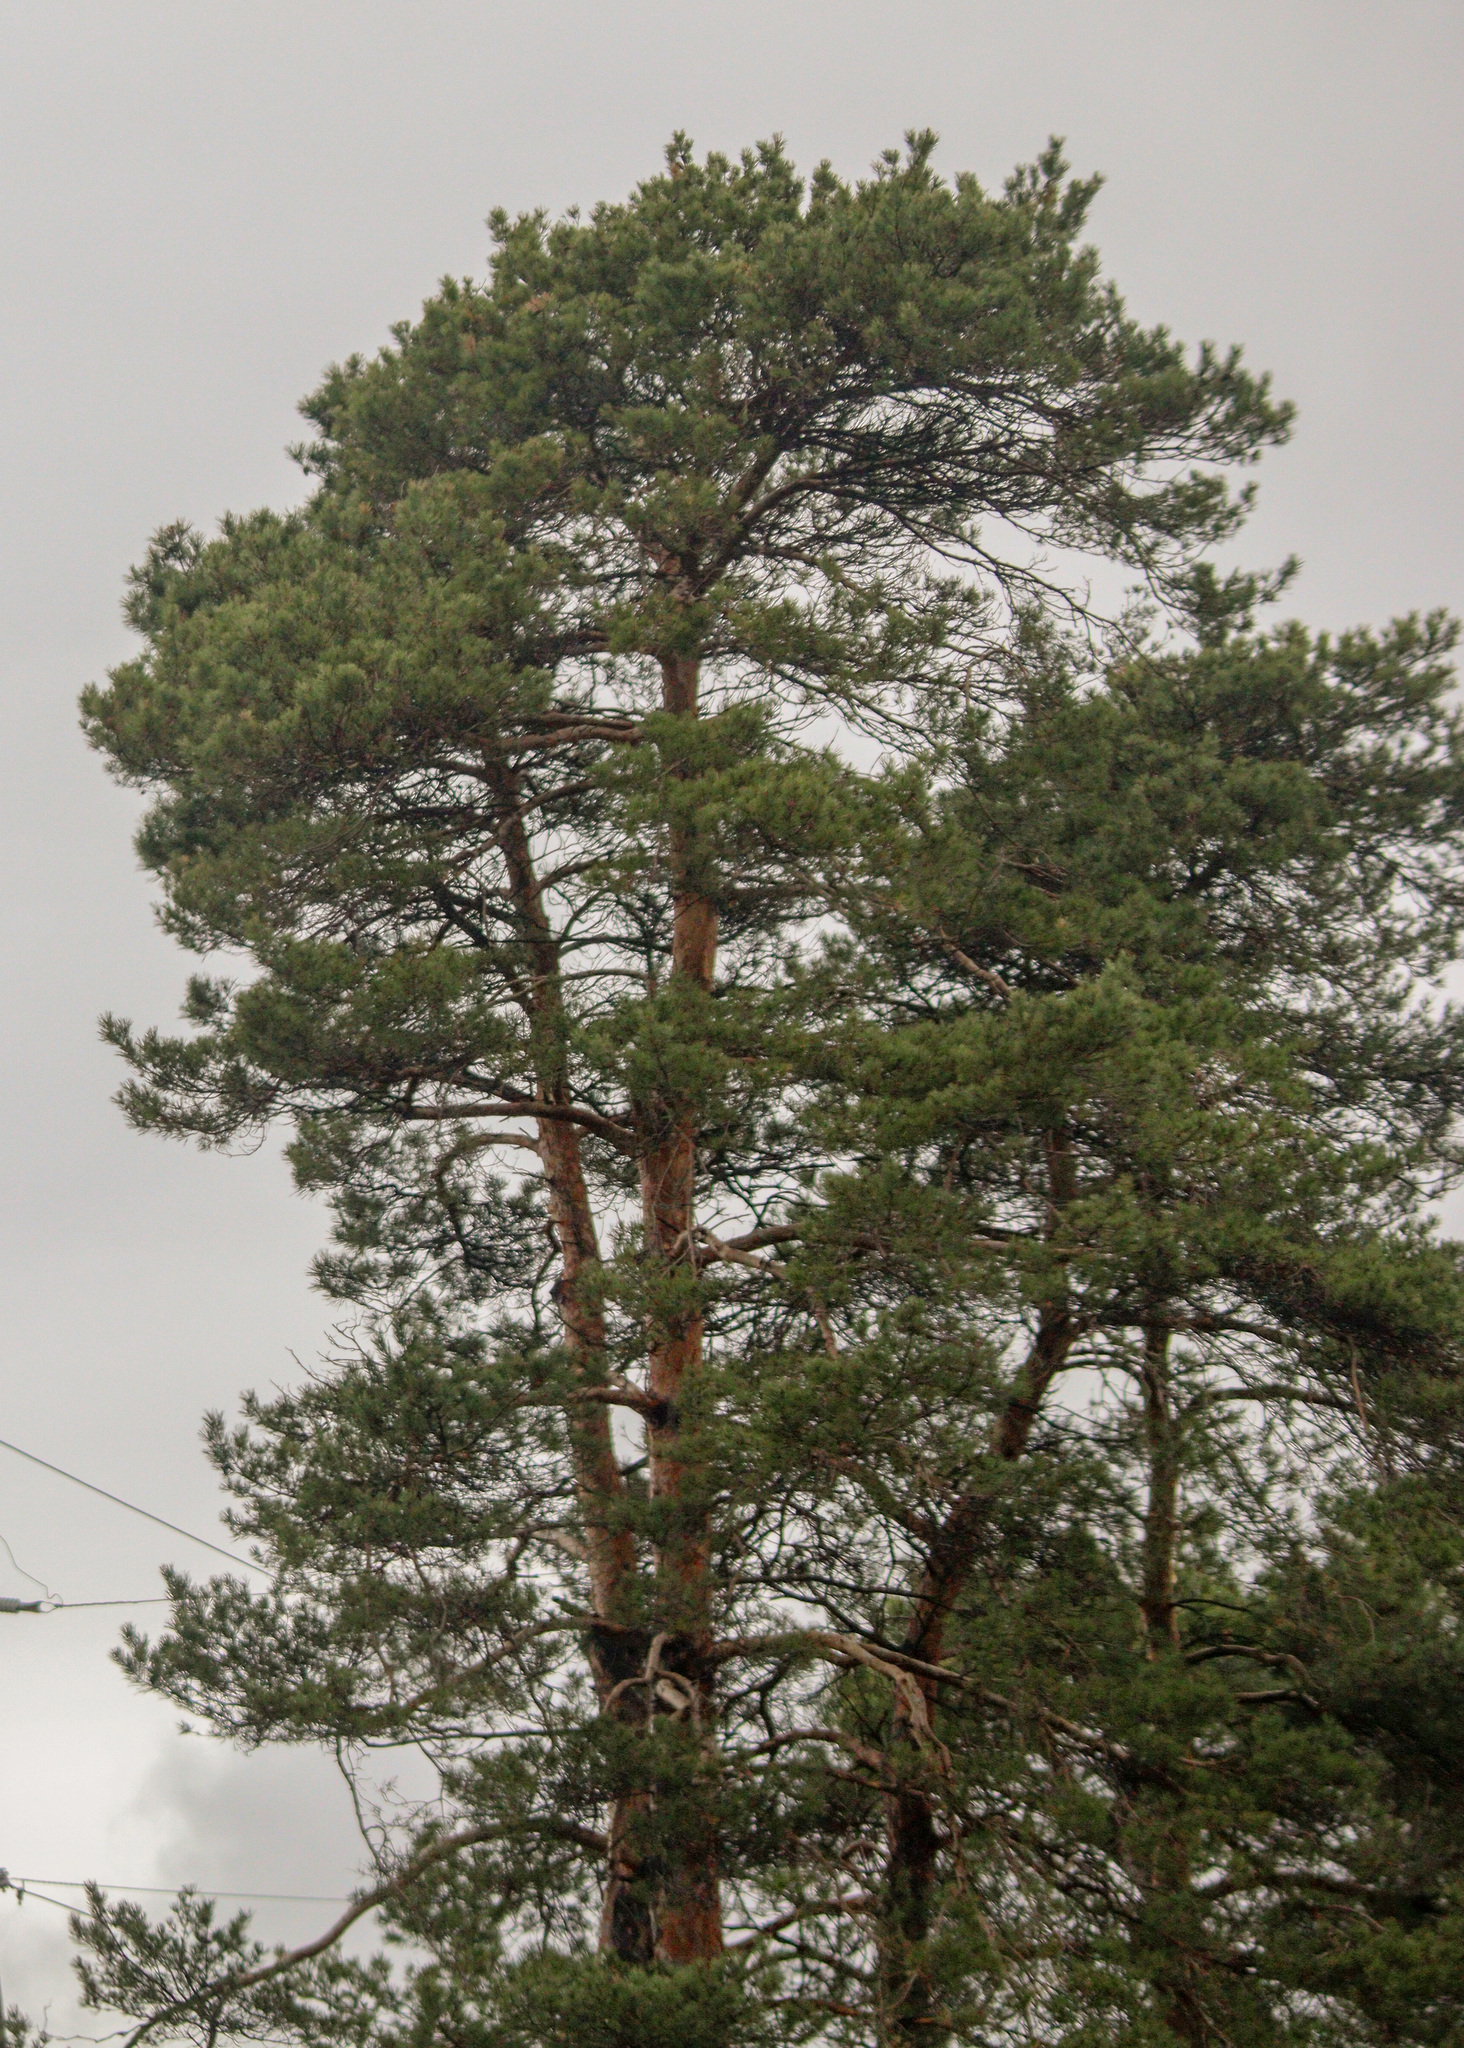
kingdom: Plantae
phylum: Tracheophyta
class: Pinopsida
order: Pinales
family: Pinaceae
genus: Pinus
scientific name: Pinus sylvestris
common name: Scots pine
